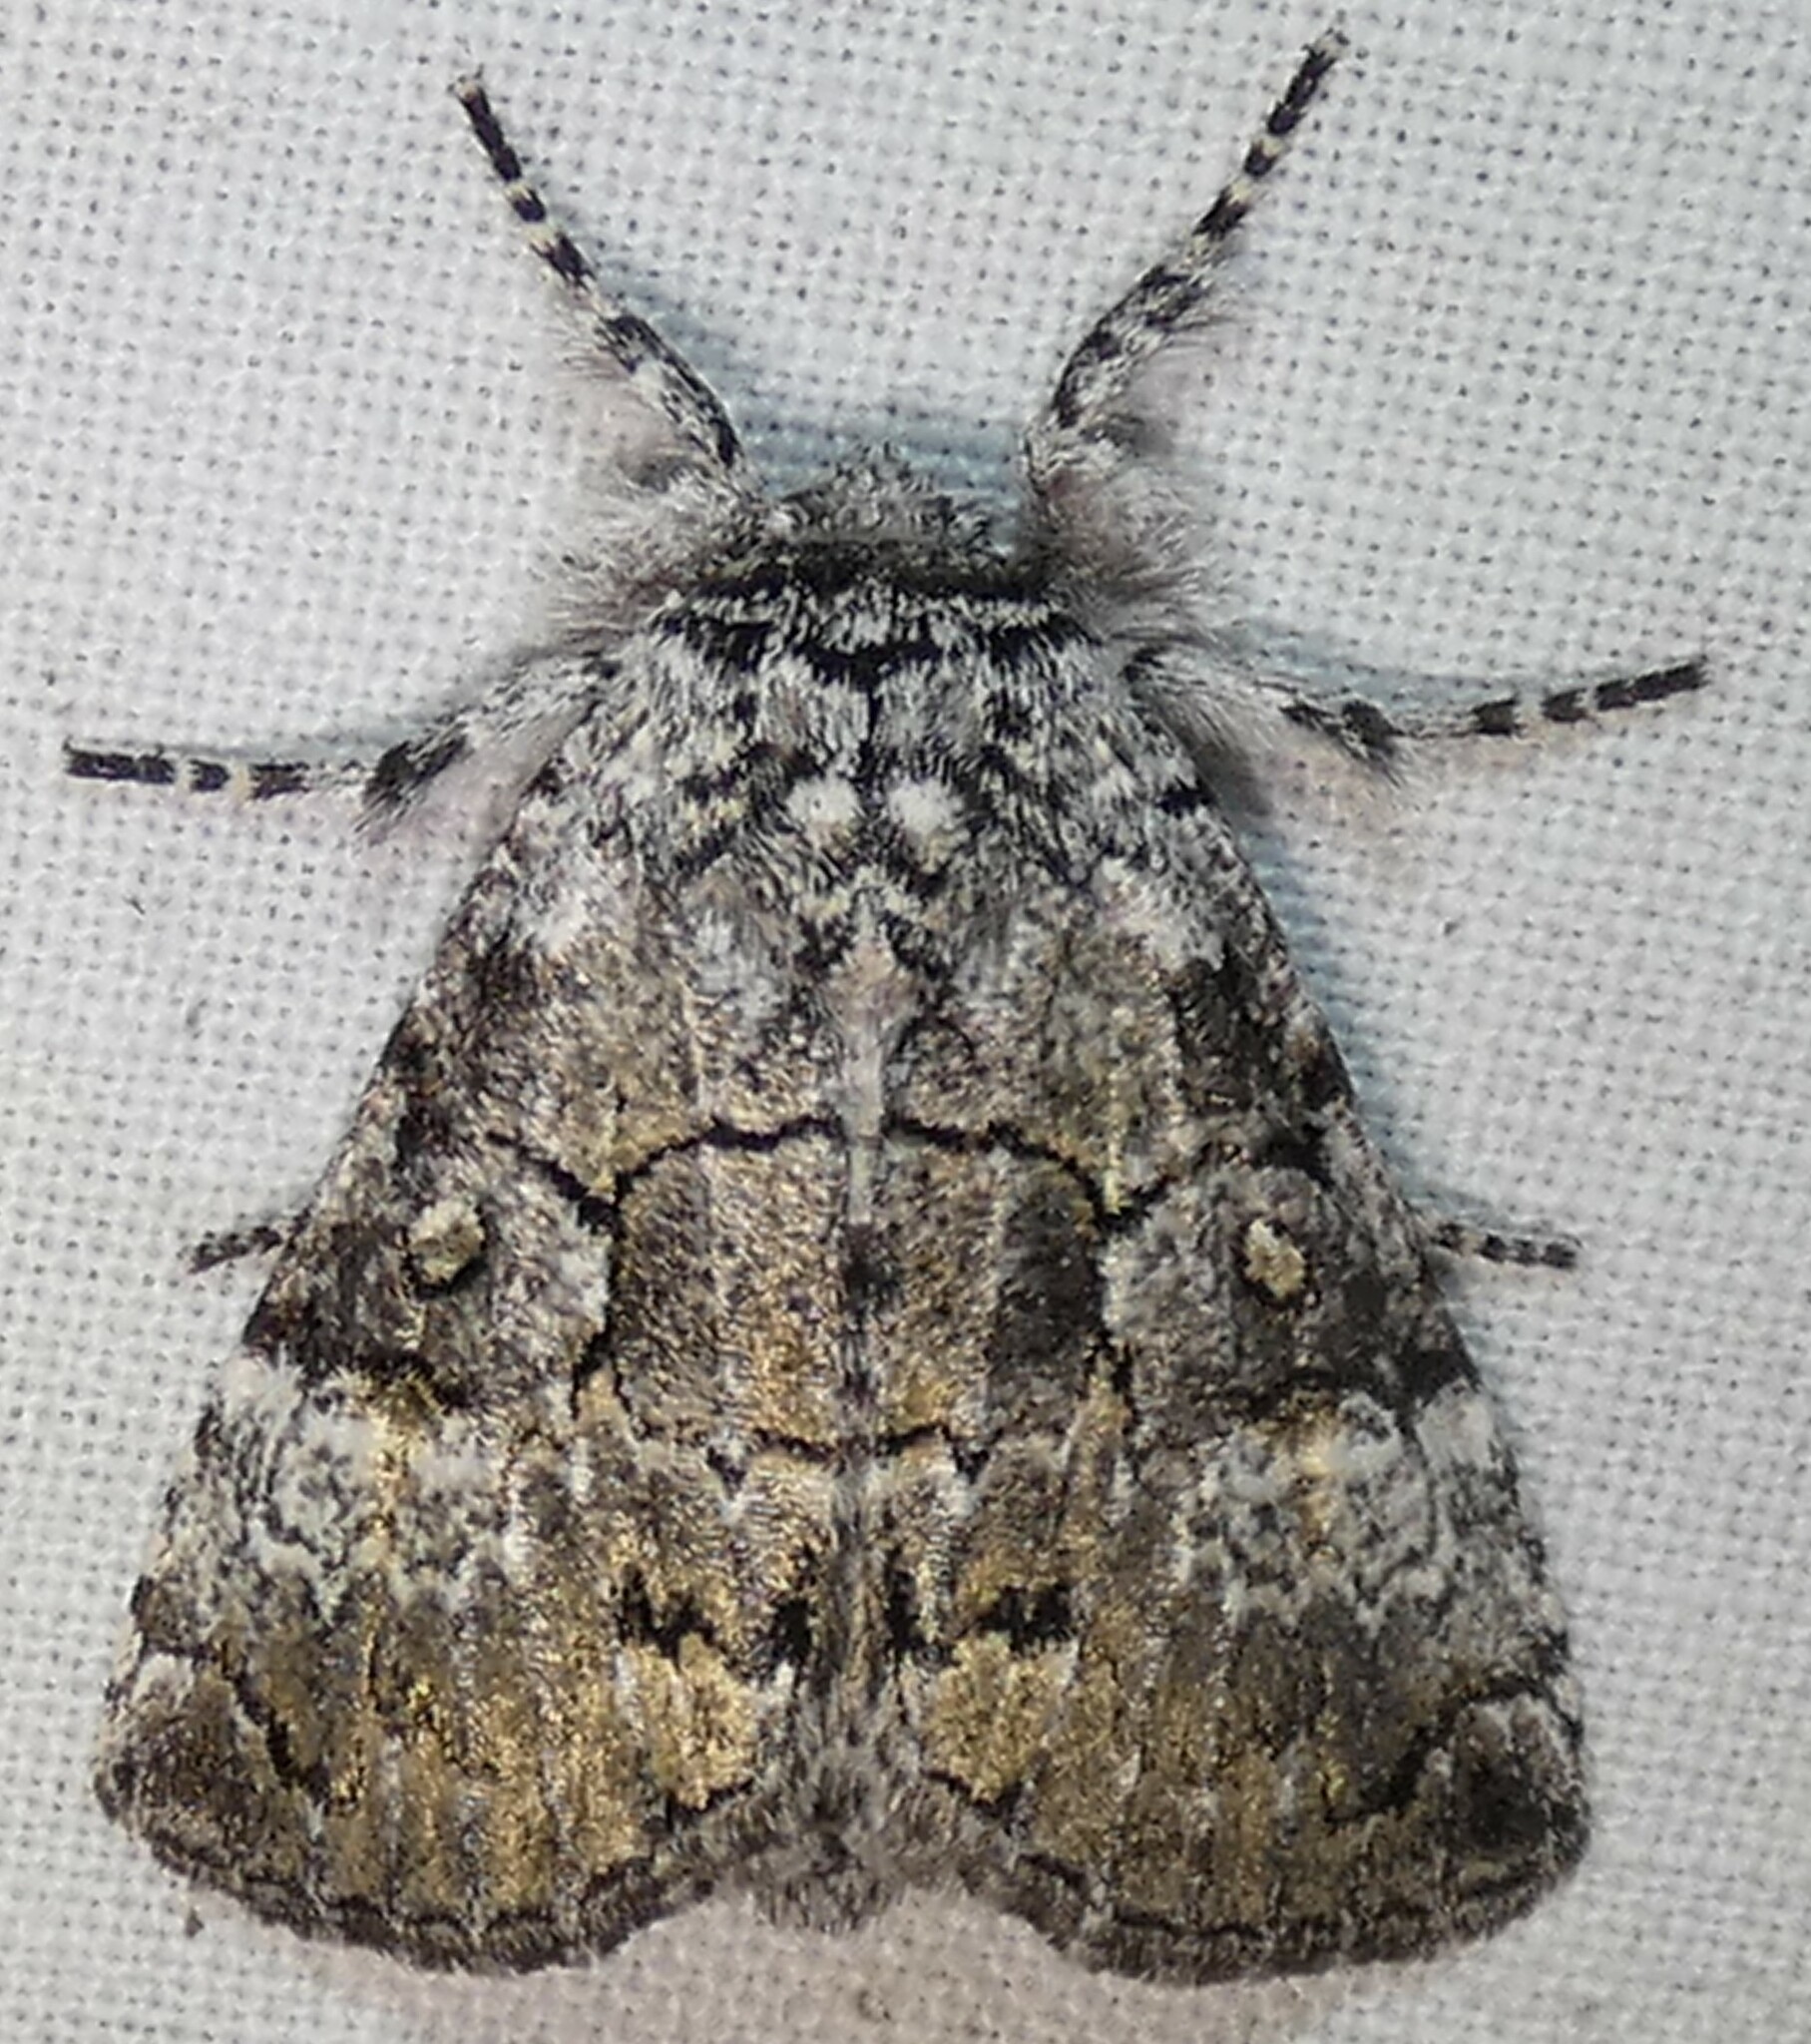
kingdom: Animalia
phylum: Arthropoda
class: Insecta
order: Lepidoptera
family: Noctuidae
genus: Charadra
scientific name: Charadra deridens
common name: Marbled tuffet
